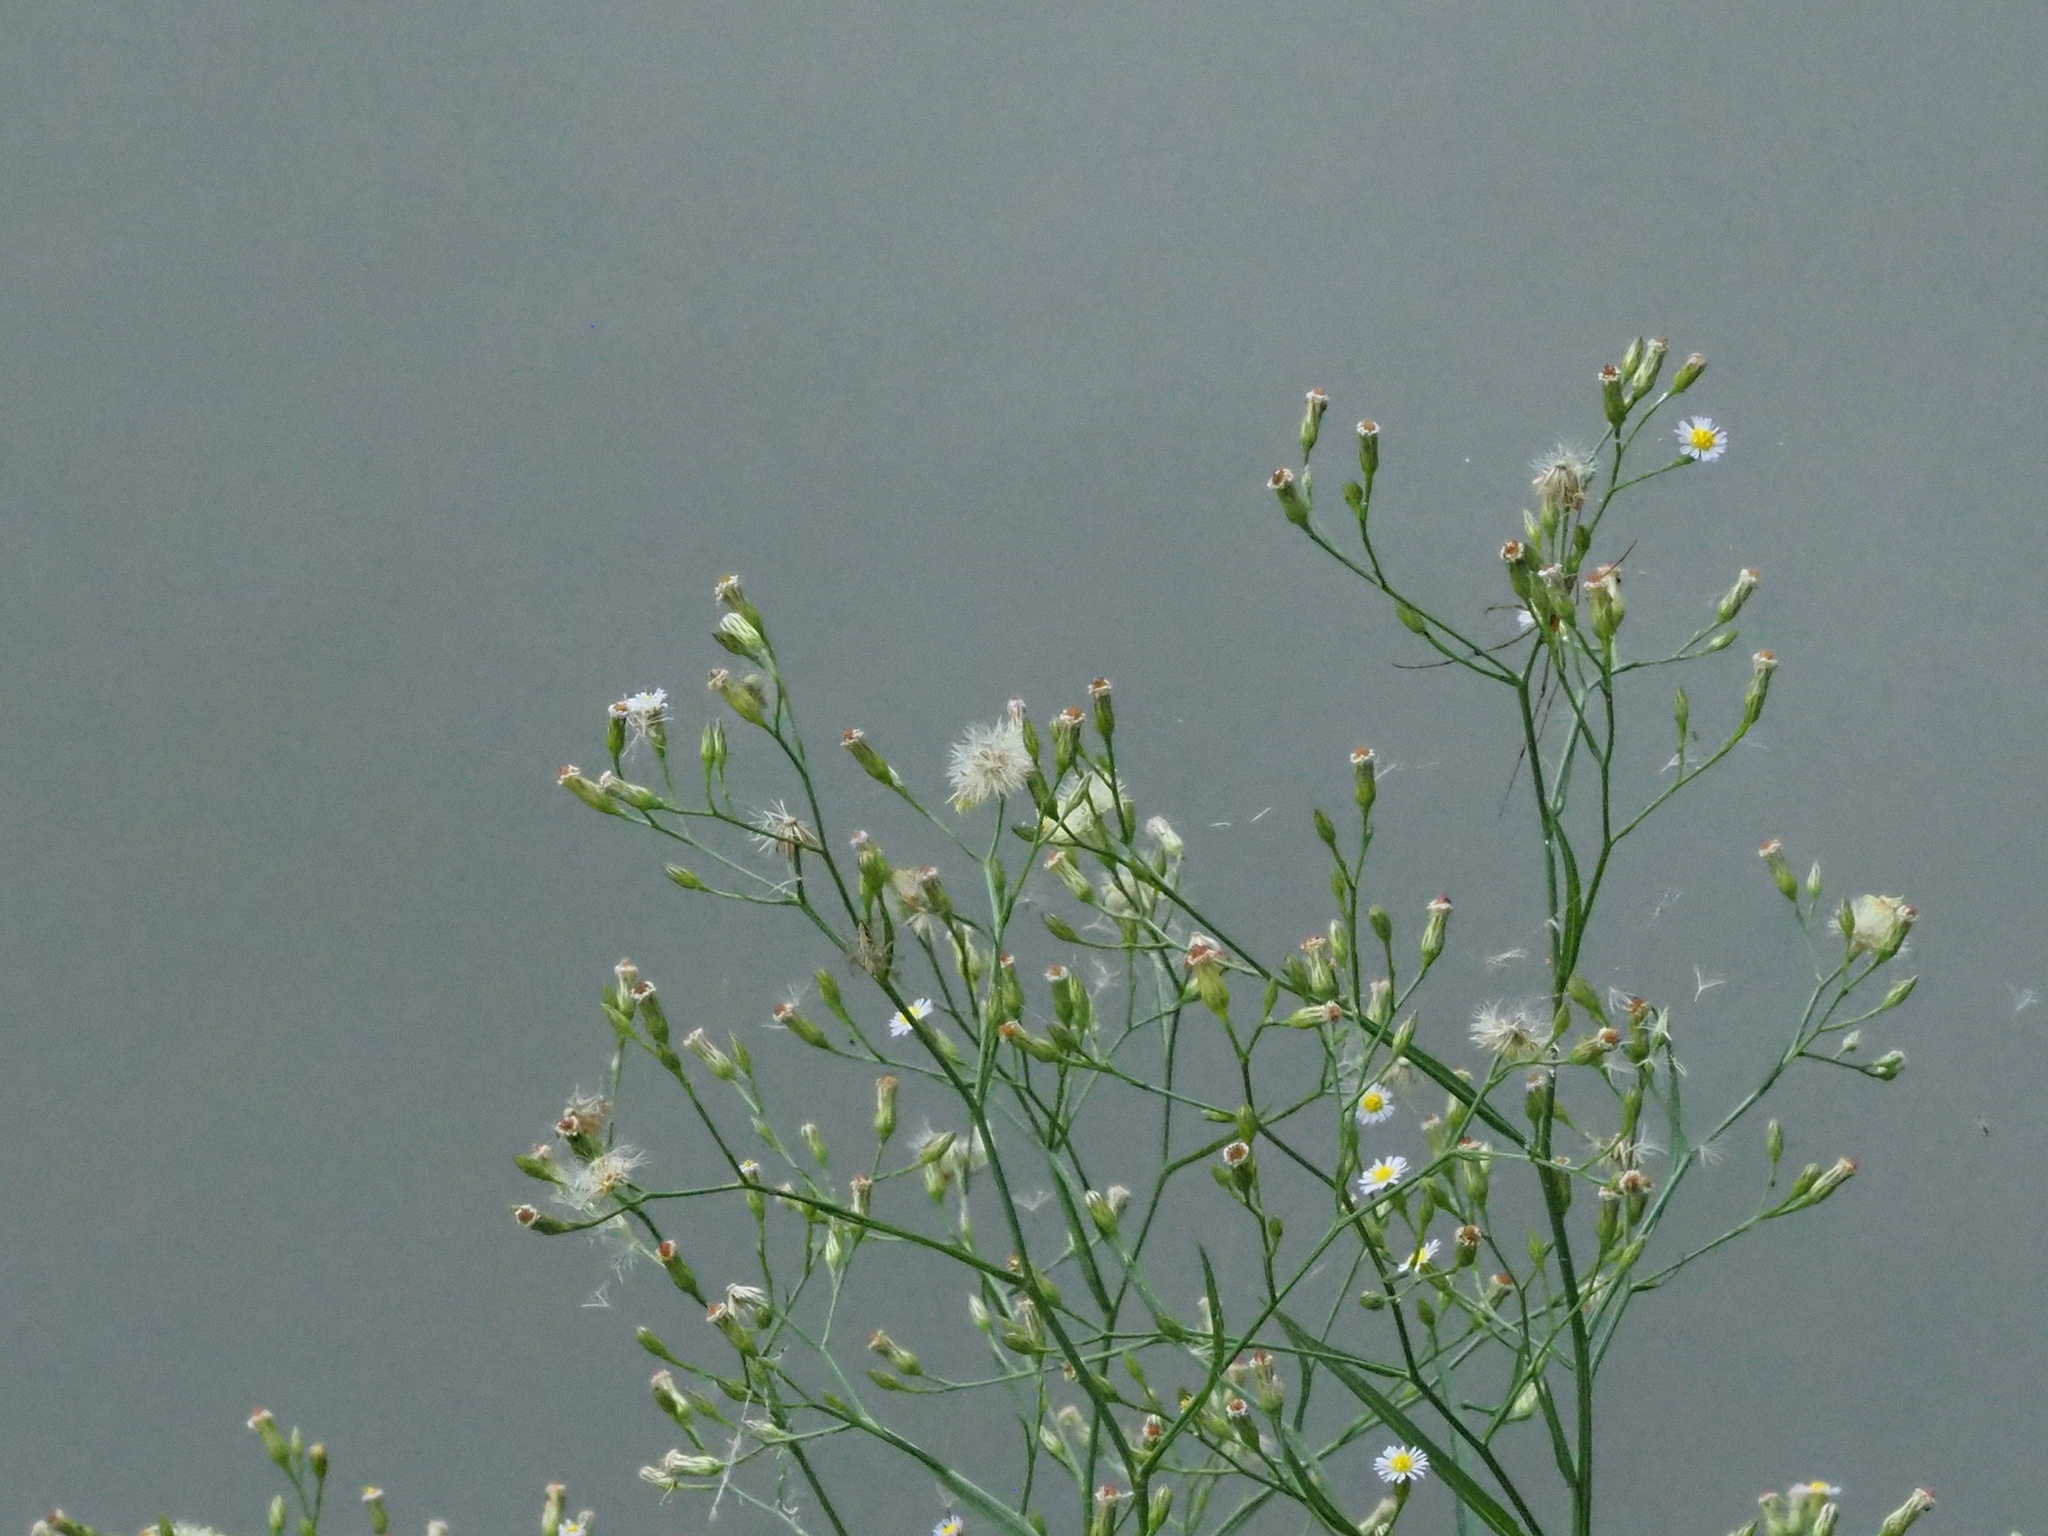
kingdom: Plantae
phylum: Tracheophyta
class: Magnoliopsida
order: Asterales
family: Asteraceae
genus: Symphyotrichum
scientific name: Symphyotrichum subulatum
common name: Annual saltmarsh aster
